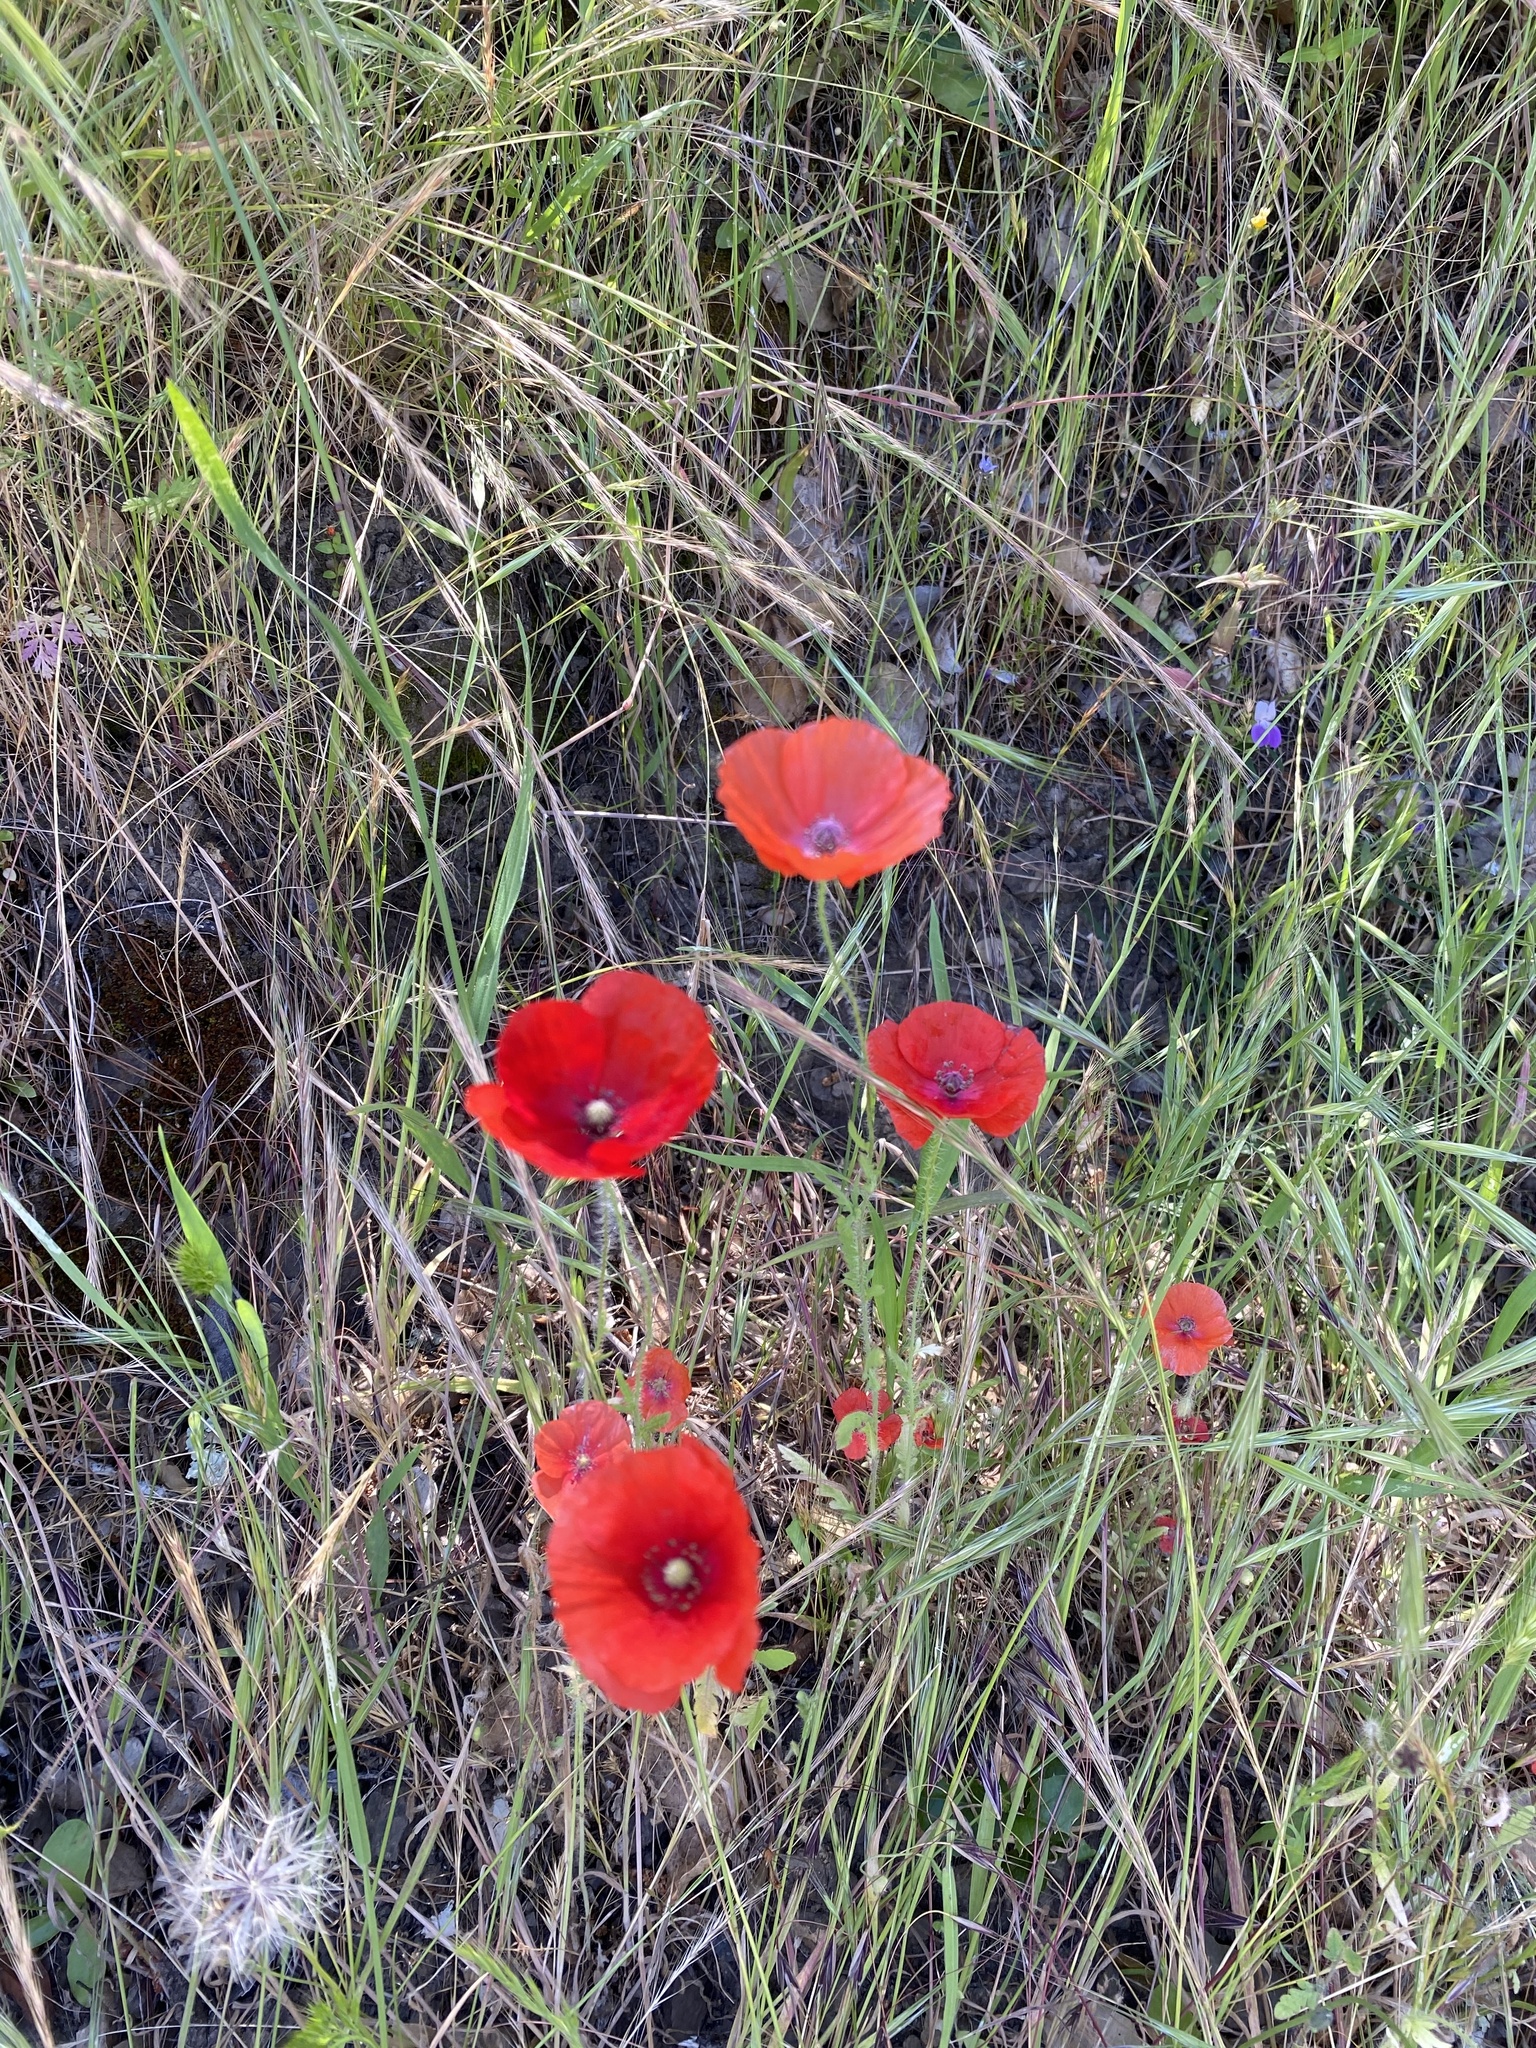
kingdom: Plantae
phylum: Tracheophyta
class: Magnoliopsida
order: Ranunculales
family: Papaveraceae
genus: Papaver
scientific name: Papaver rhoeas
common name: Corn poppy
